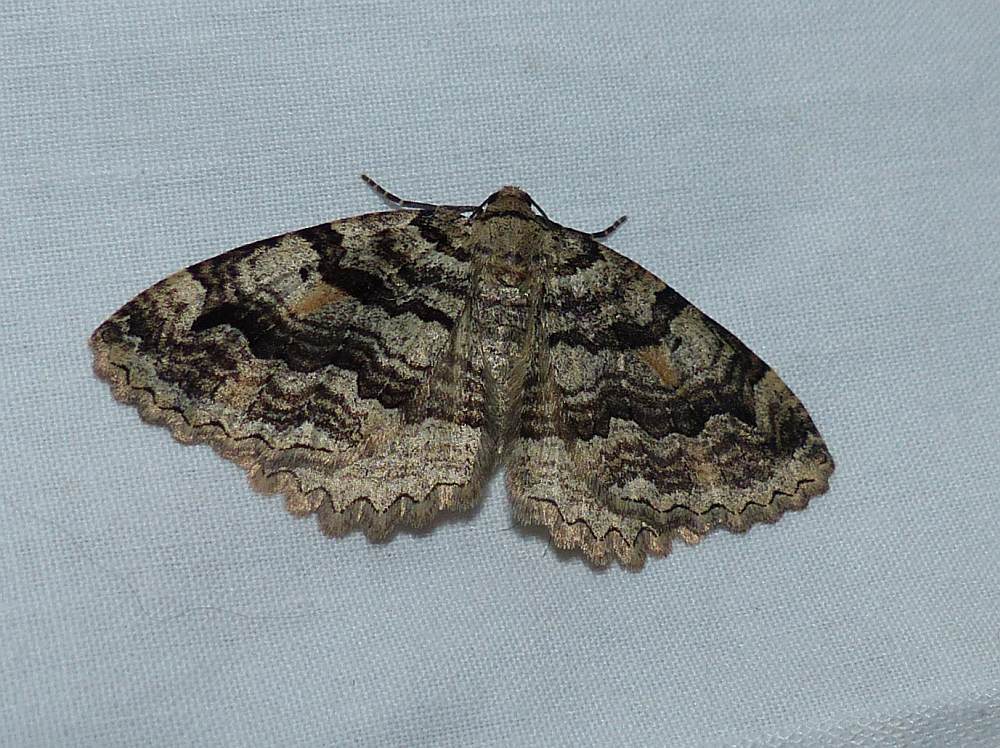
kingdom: Animalia
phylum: Arthropoda
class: Insecta
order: Lepidoptera
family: Geometridae
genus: Triphosa
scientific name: Triphosa haesitata
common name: Tissue moth
